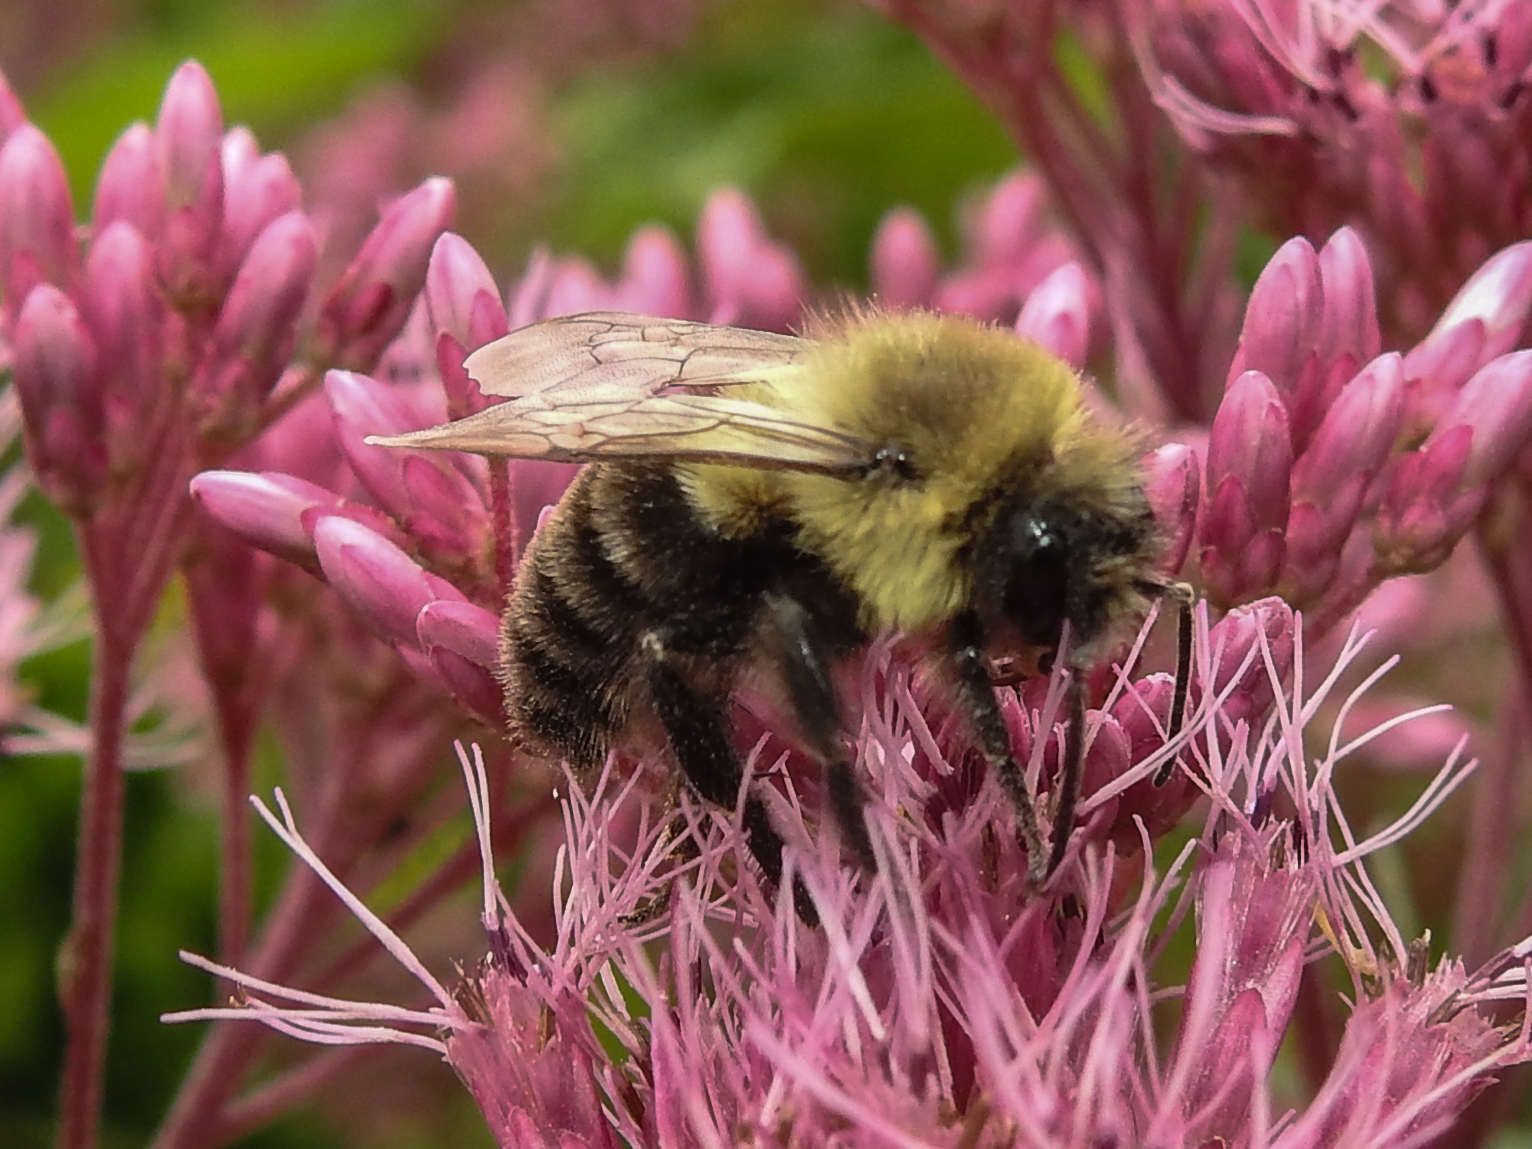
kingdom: Animalia
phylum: Arthropoda
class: Insecta
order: Hymenoptera
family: Apidae
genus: Bombus
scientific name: Bombus impatiens
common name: Common eastern bumble bee
